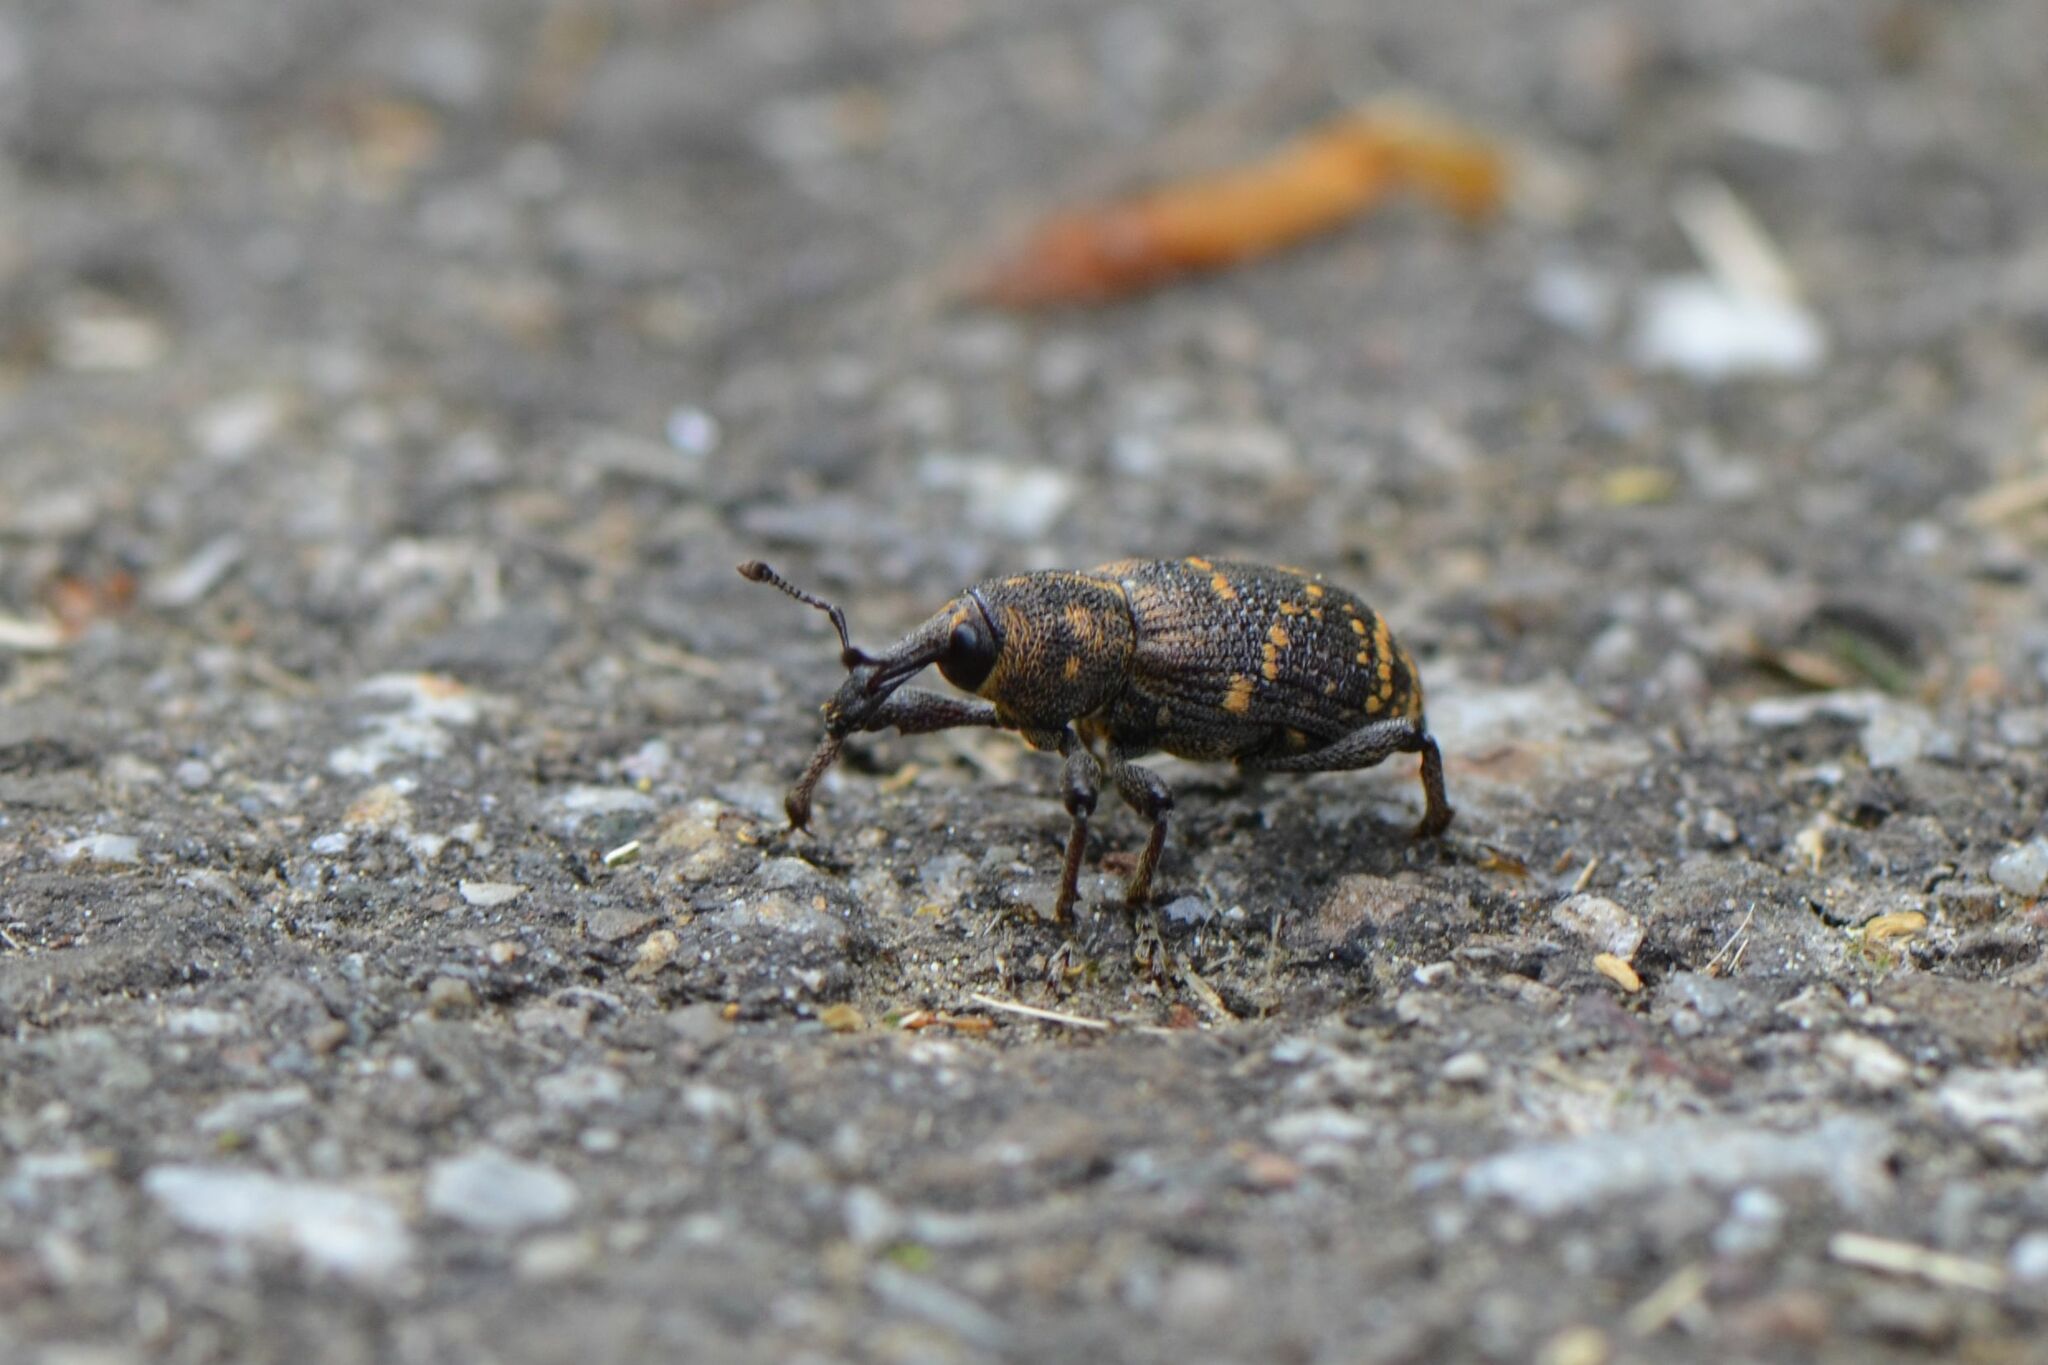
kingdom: Animalia
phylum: Arthropoda
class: Insecta
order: Coleoptera
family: Curculionidae
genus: Hylobius
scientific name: Hylobius abietis
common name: Large pine weevil
